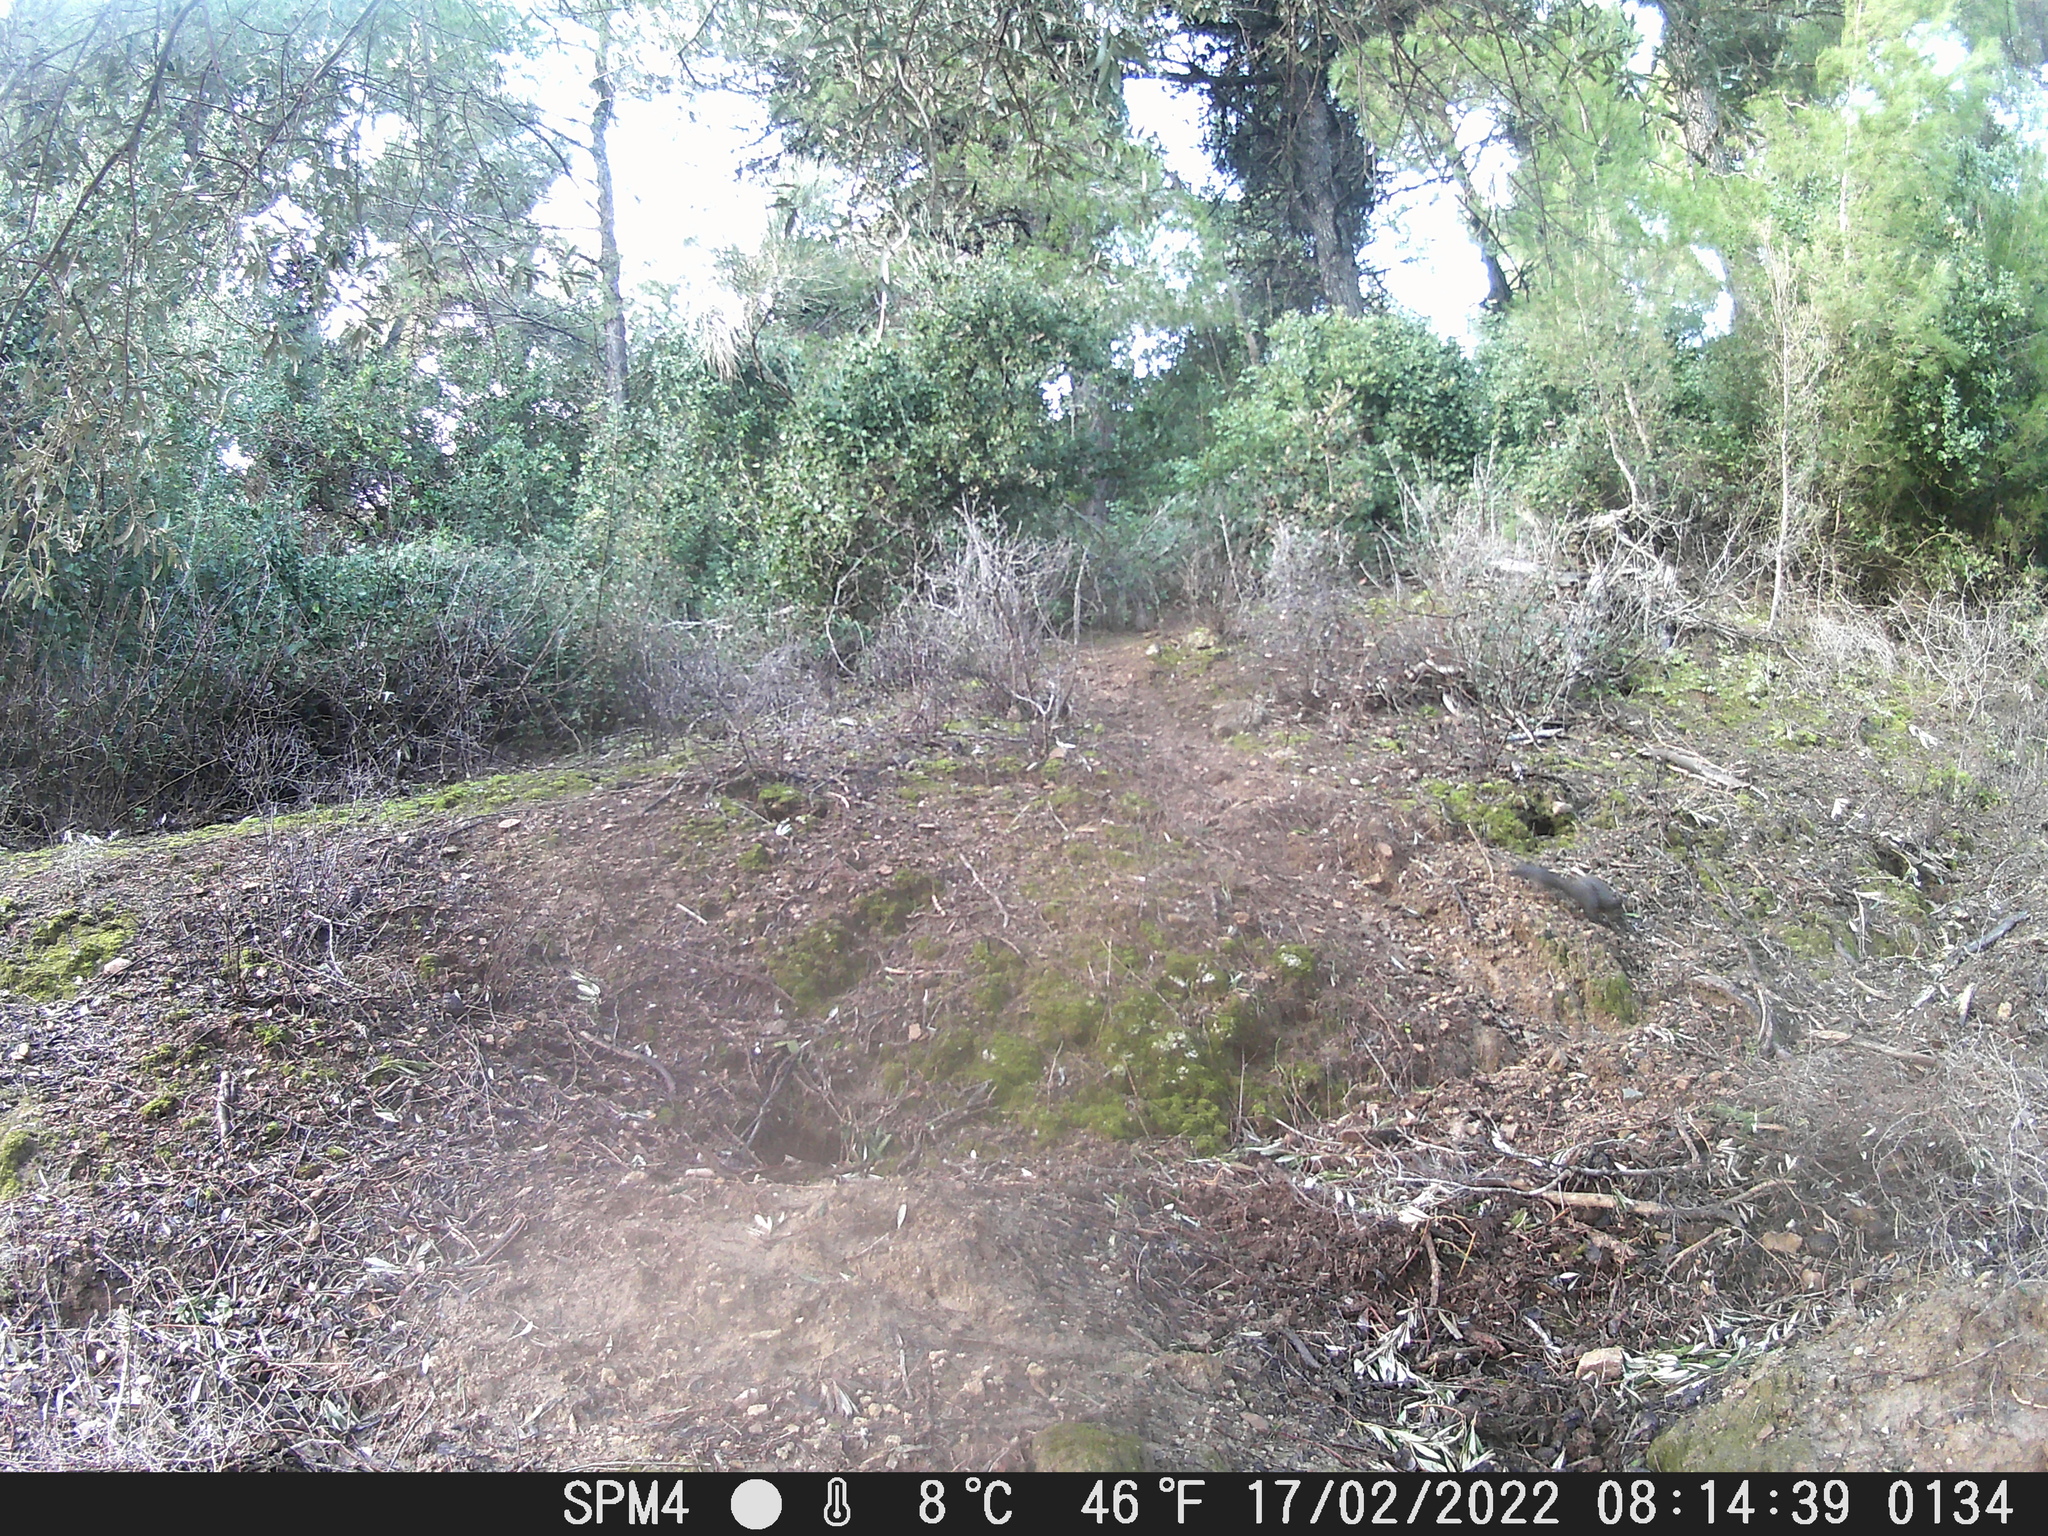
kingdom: Animalia
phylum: Chordata
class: Mammalia
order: Rodentia
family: Sciuridae
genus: Sciurus
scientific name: Sciurus vulgaris
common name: Eurasian red squirrel
